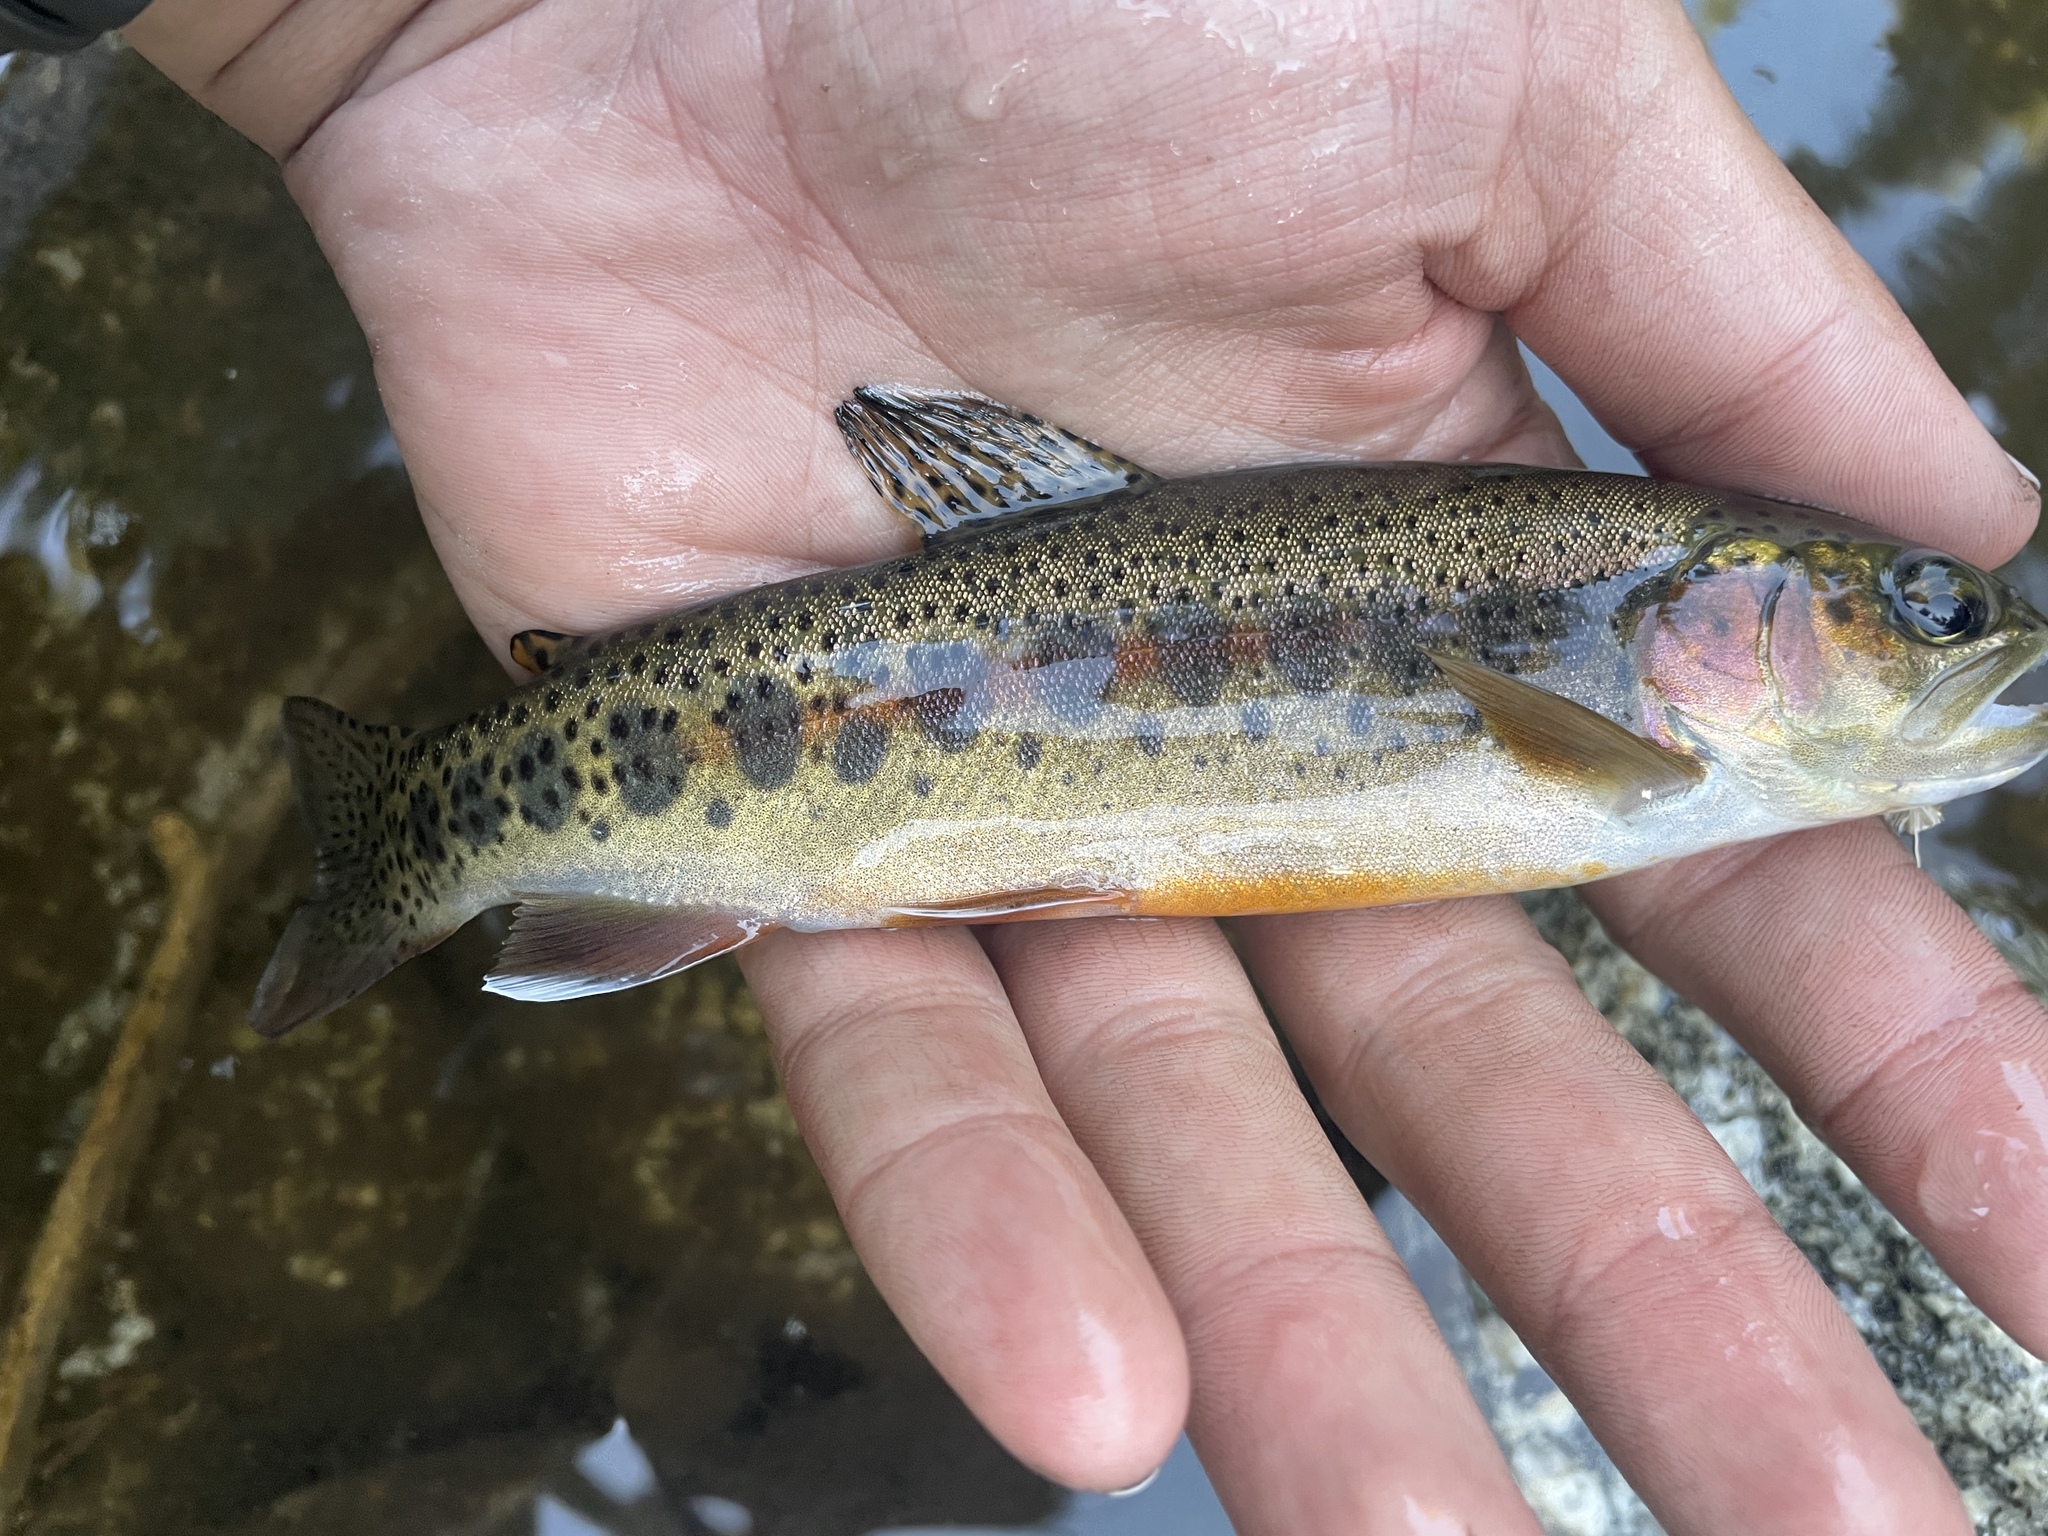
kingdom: Animalia
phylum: Chordata
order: Salmoniformes
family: Salmonidae
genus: Oncorhynchus
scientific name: Oncorhynchus mykiss
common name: Rainbow trout
